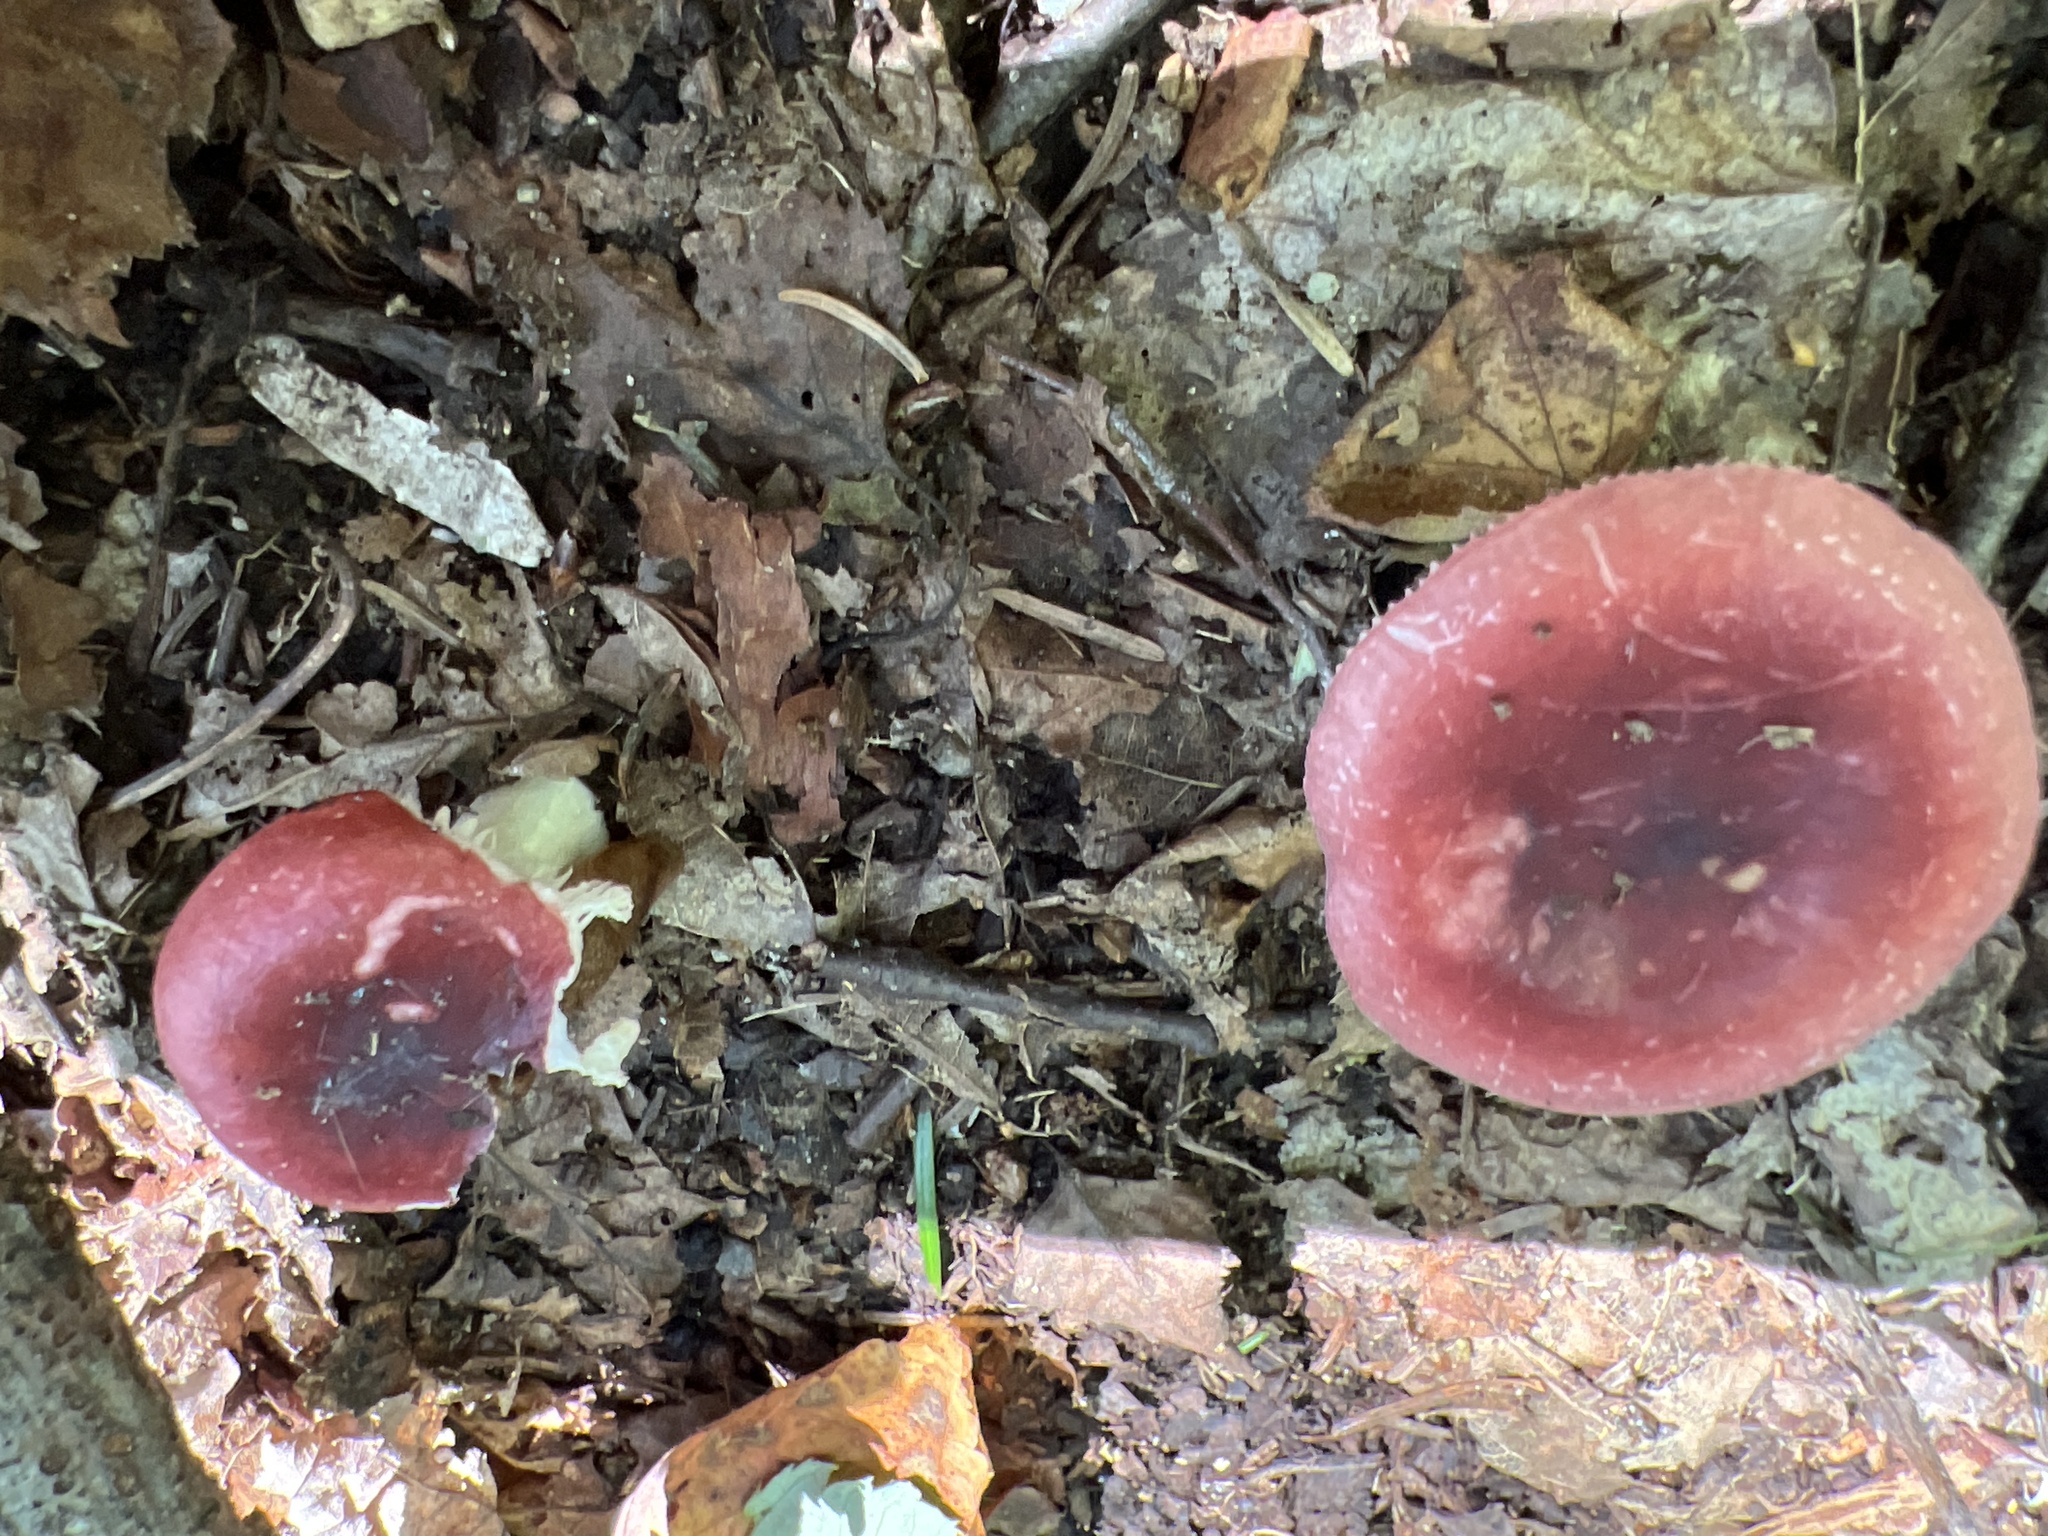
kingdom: Fungi
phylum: Basidiomycota
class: Agaricomycetes
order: Russulales
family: Russulaceae
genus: Russula
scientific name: Russula
